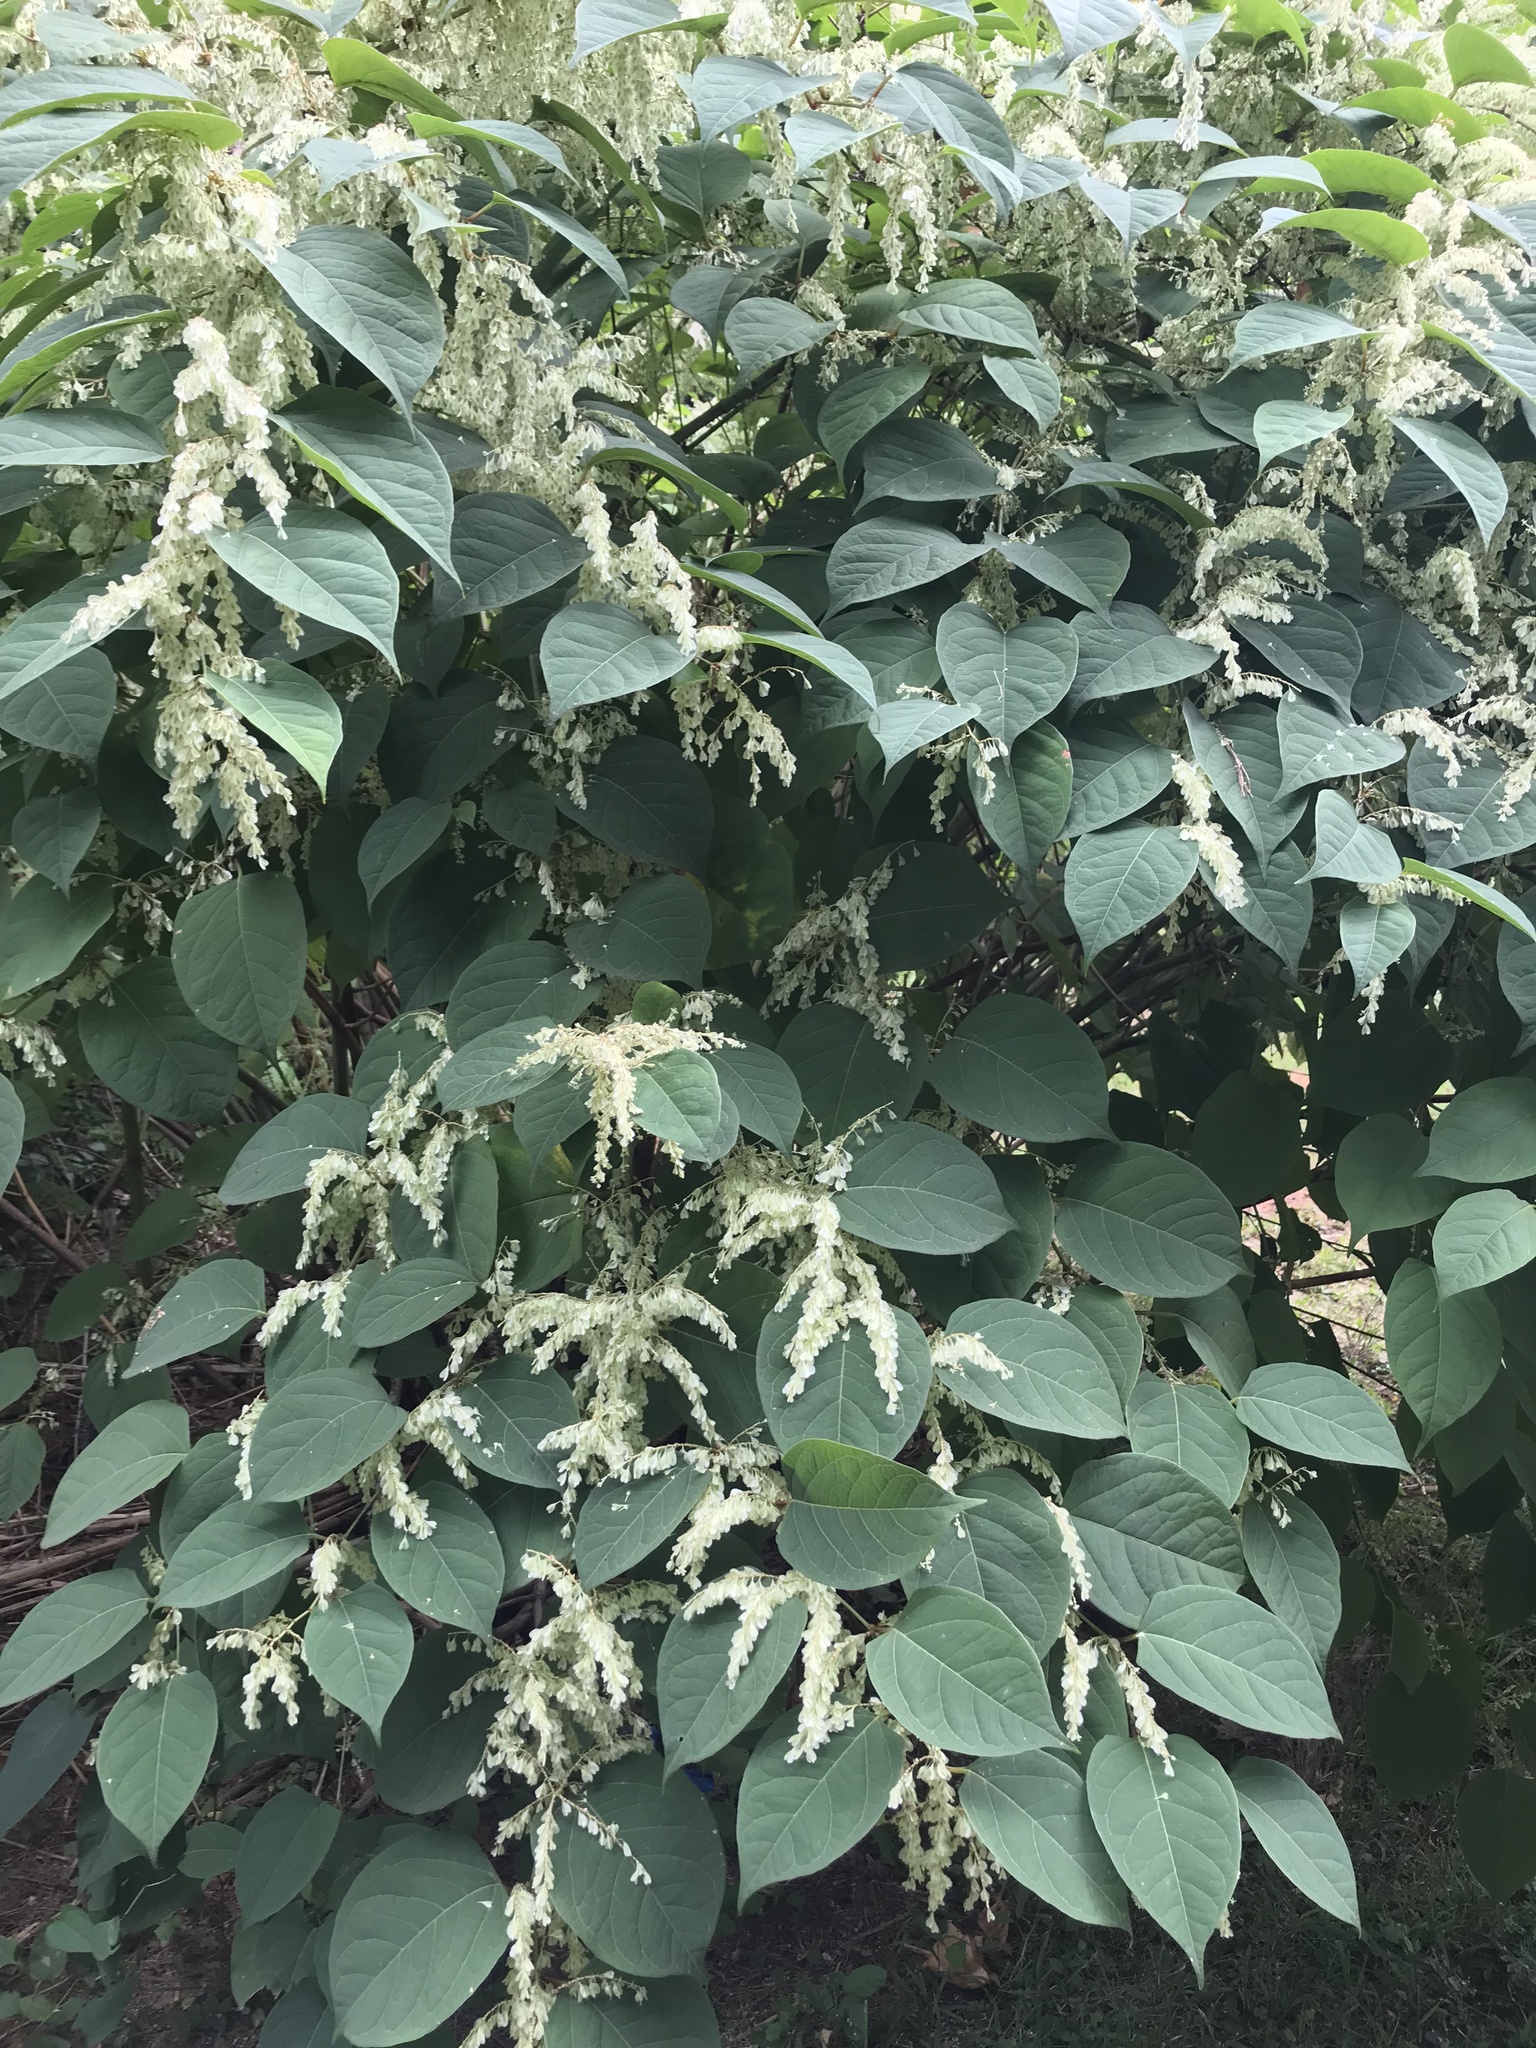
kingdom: Plantae
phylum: Tracheophyta
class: Magnoliopsida
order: Caryophyllales
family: Polygonaceae
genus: Reynoutria
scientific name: Reynoutria japonica
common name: Japanese knotweed
